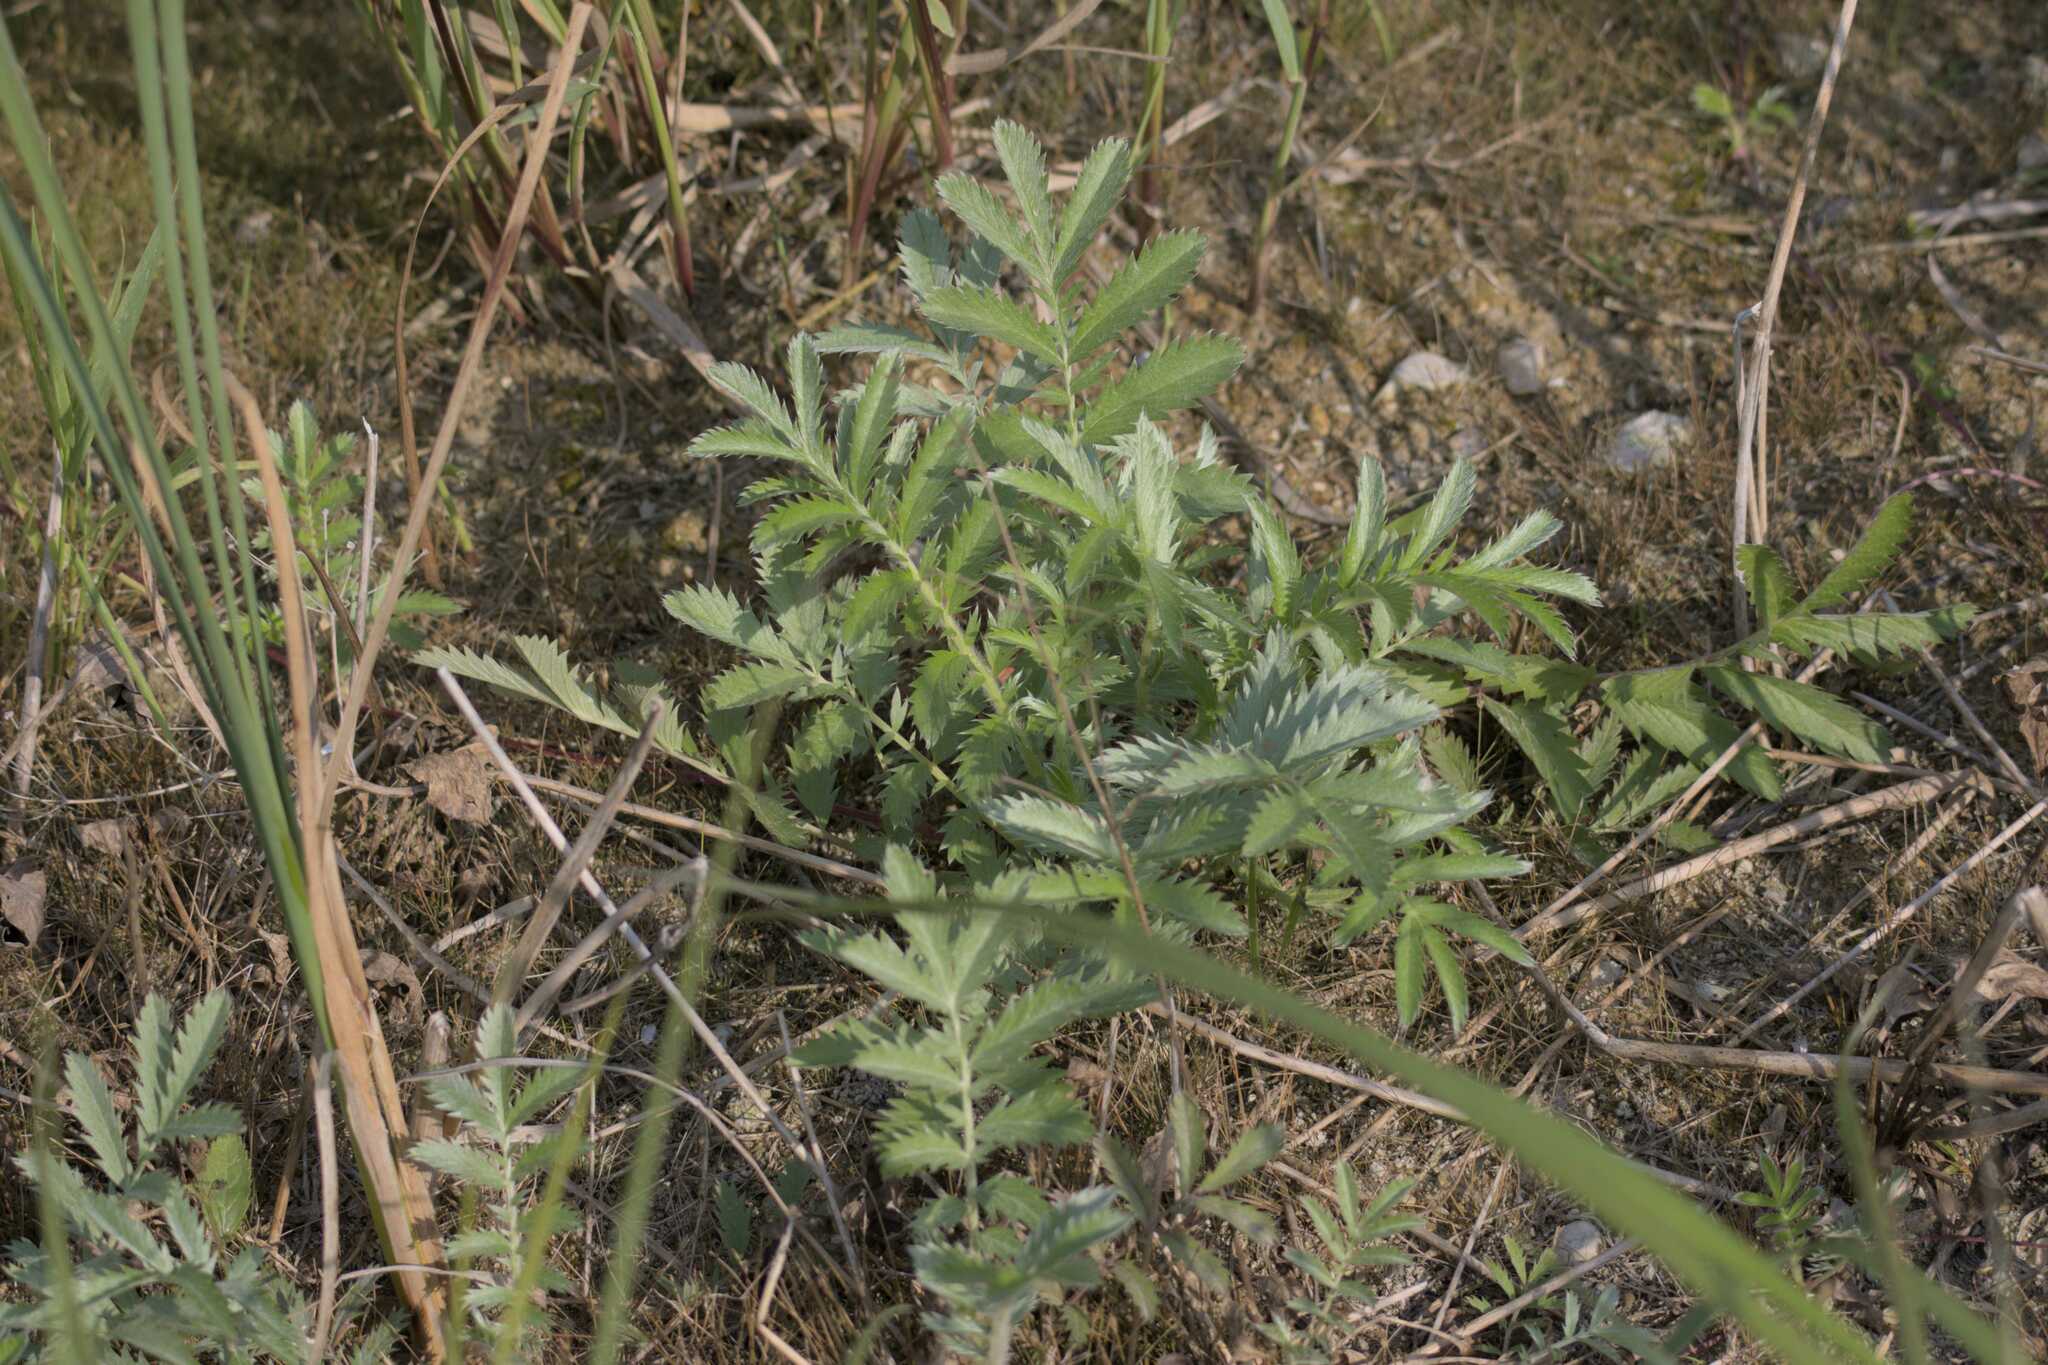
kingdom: Plantae
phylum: Tracheophyta
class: Magnoliopsida
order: Rosales
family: Rosaceae
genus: Argentina
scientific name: Argentina anserina
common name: Common silverweed
